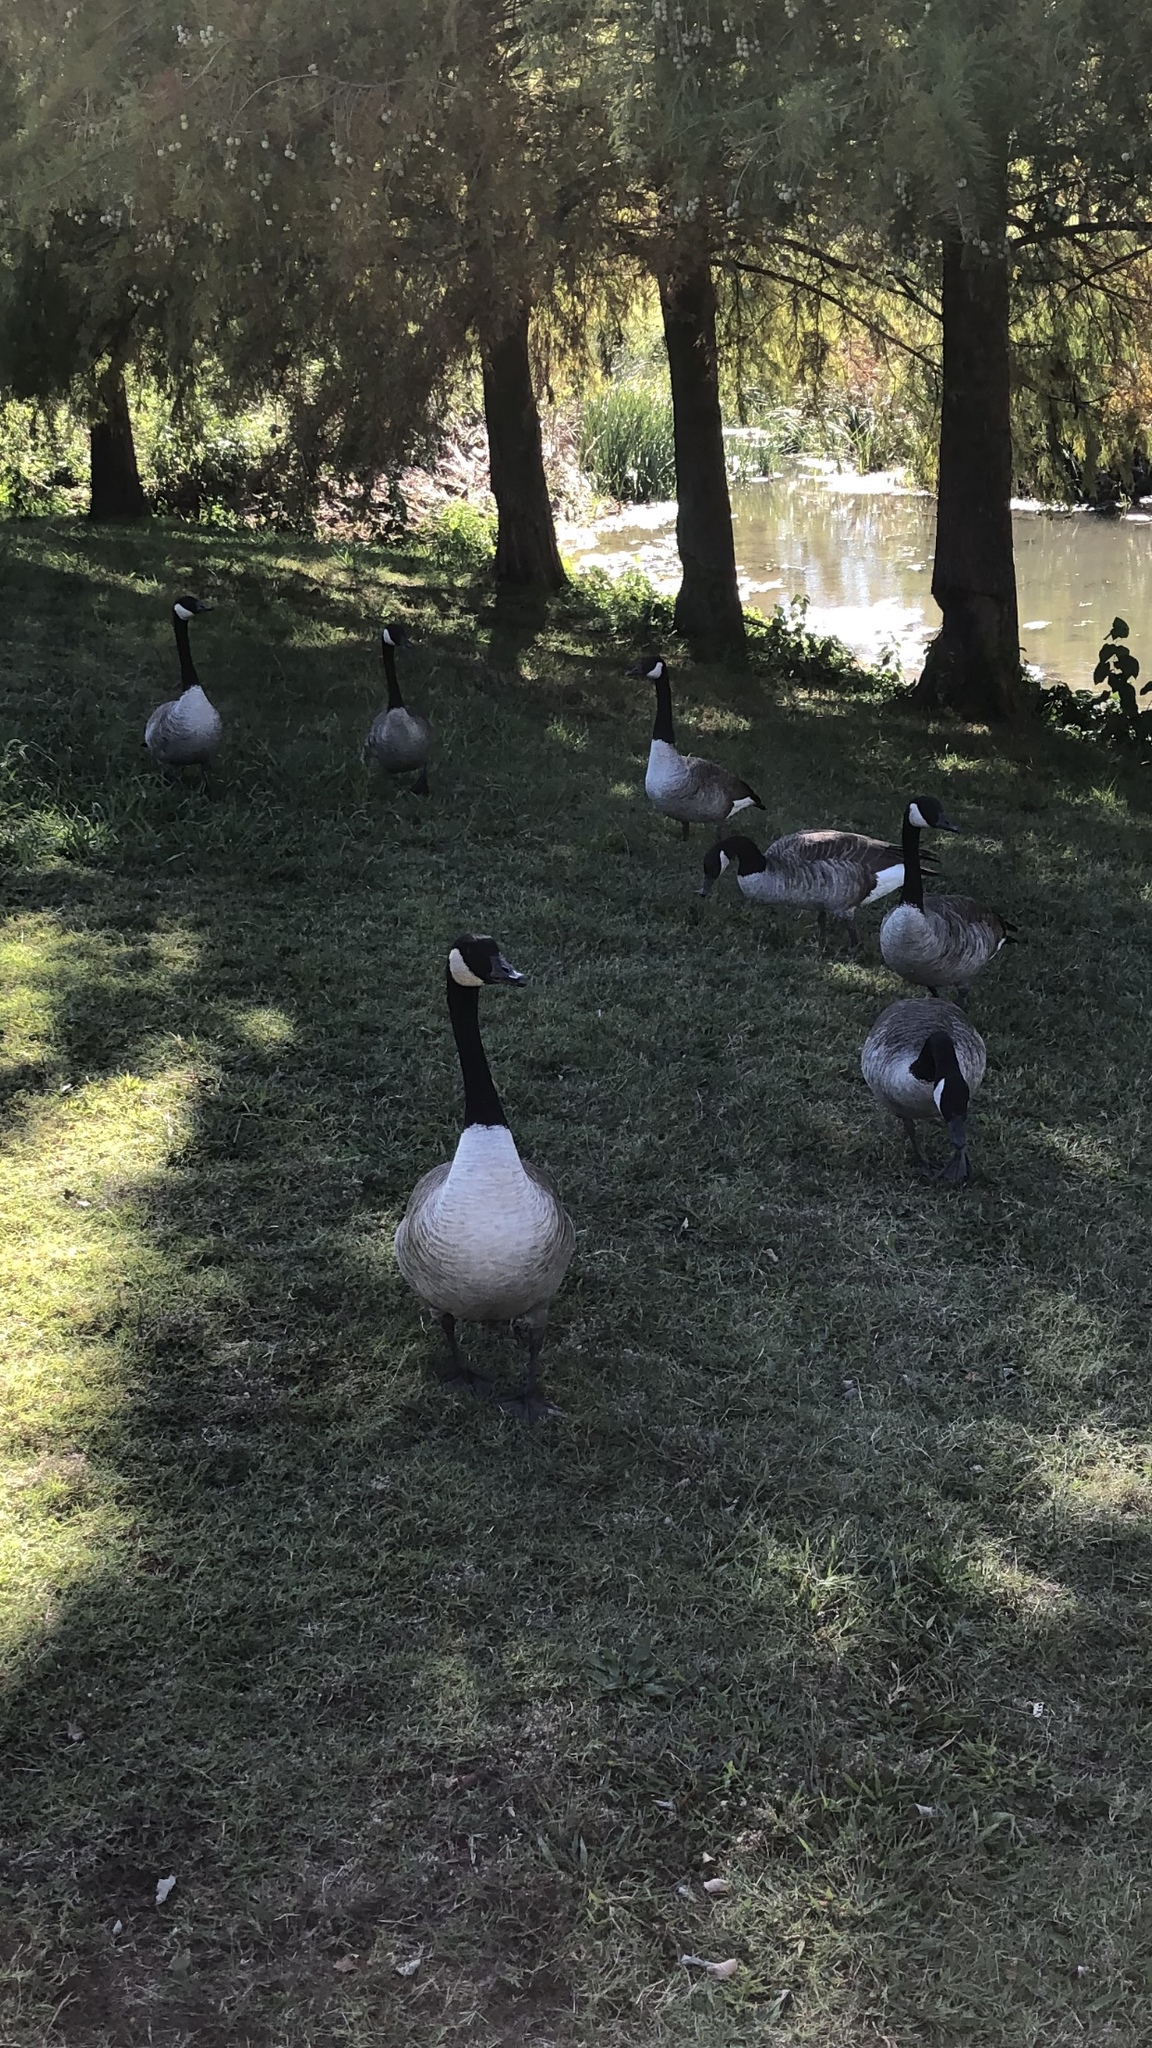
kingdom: Animalia
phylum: Chordata
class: Aves
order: Anseriformes
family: Anatidae
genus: Branta
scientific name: Branta canadensis
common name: Canada goose
